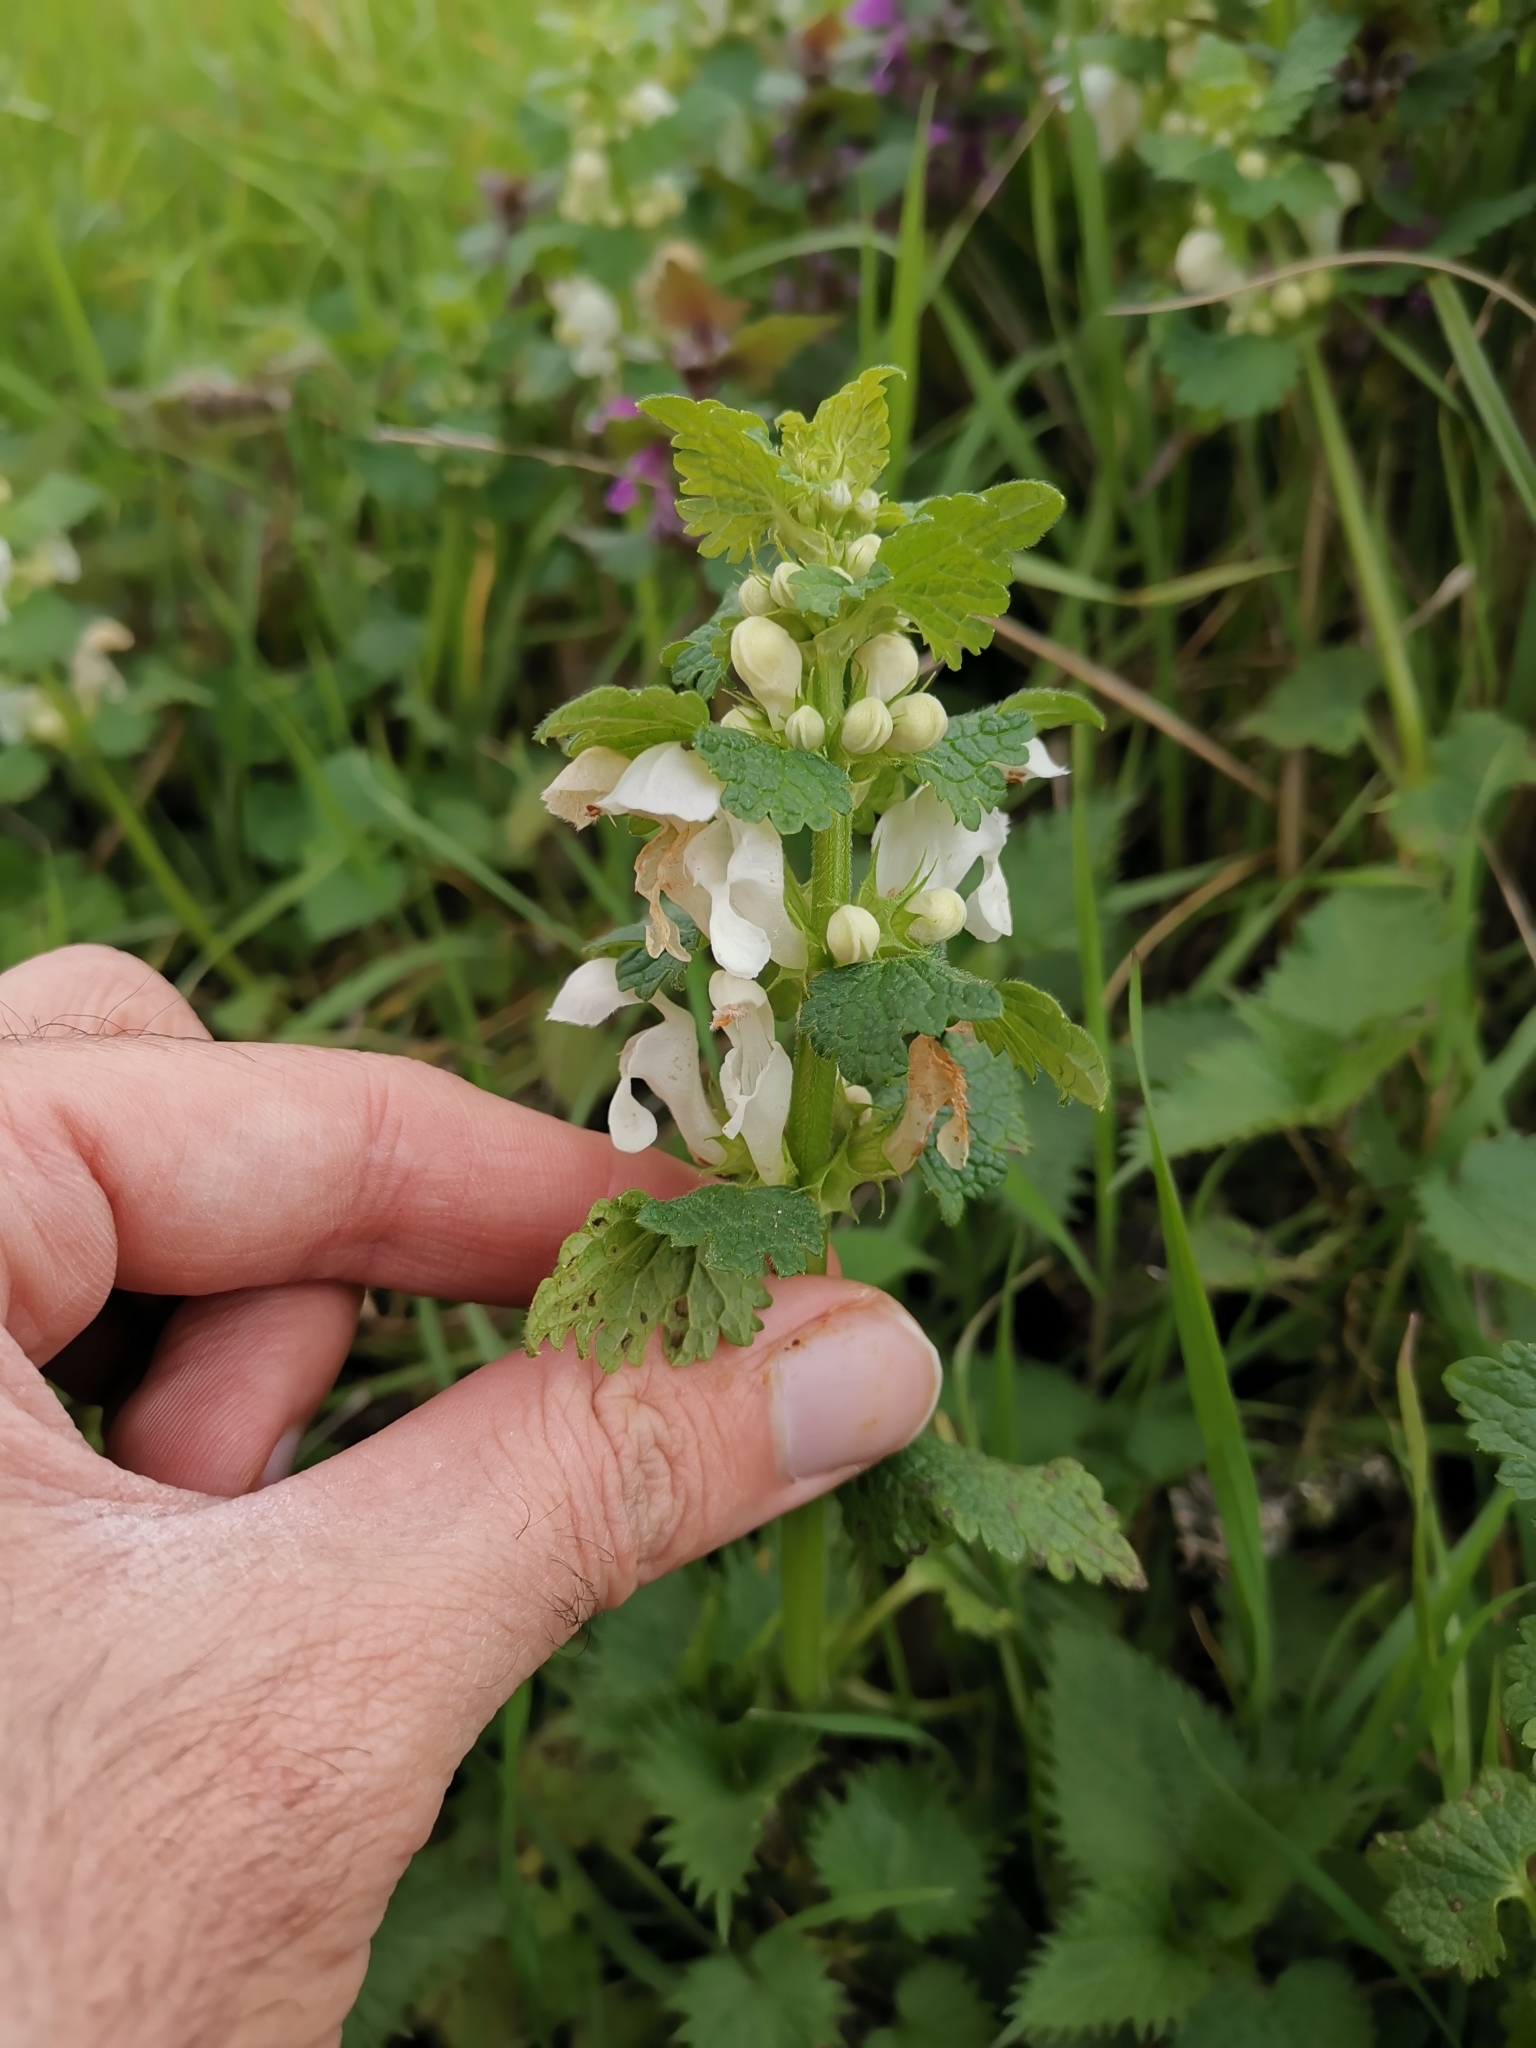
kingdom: Plantae
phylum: Tracheophyta
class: Magnoliopsida
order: Lamiales
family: Lamiaceae
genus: Lamium
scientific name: Lamium album
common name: White dead-nettle
